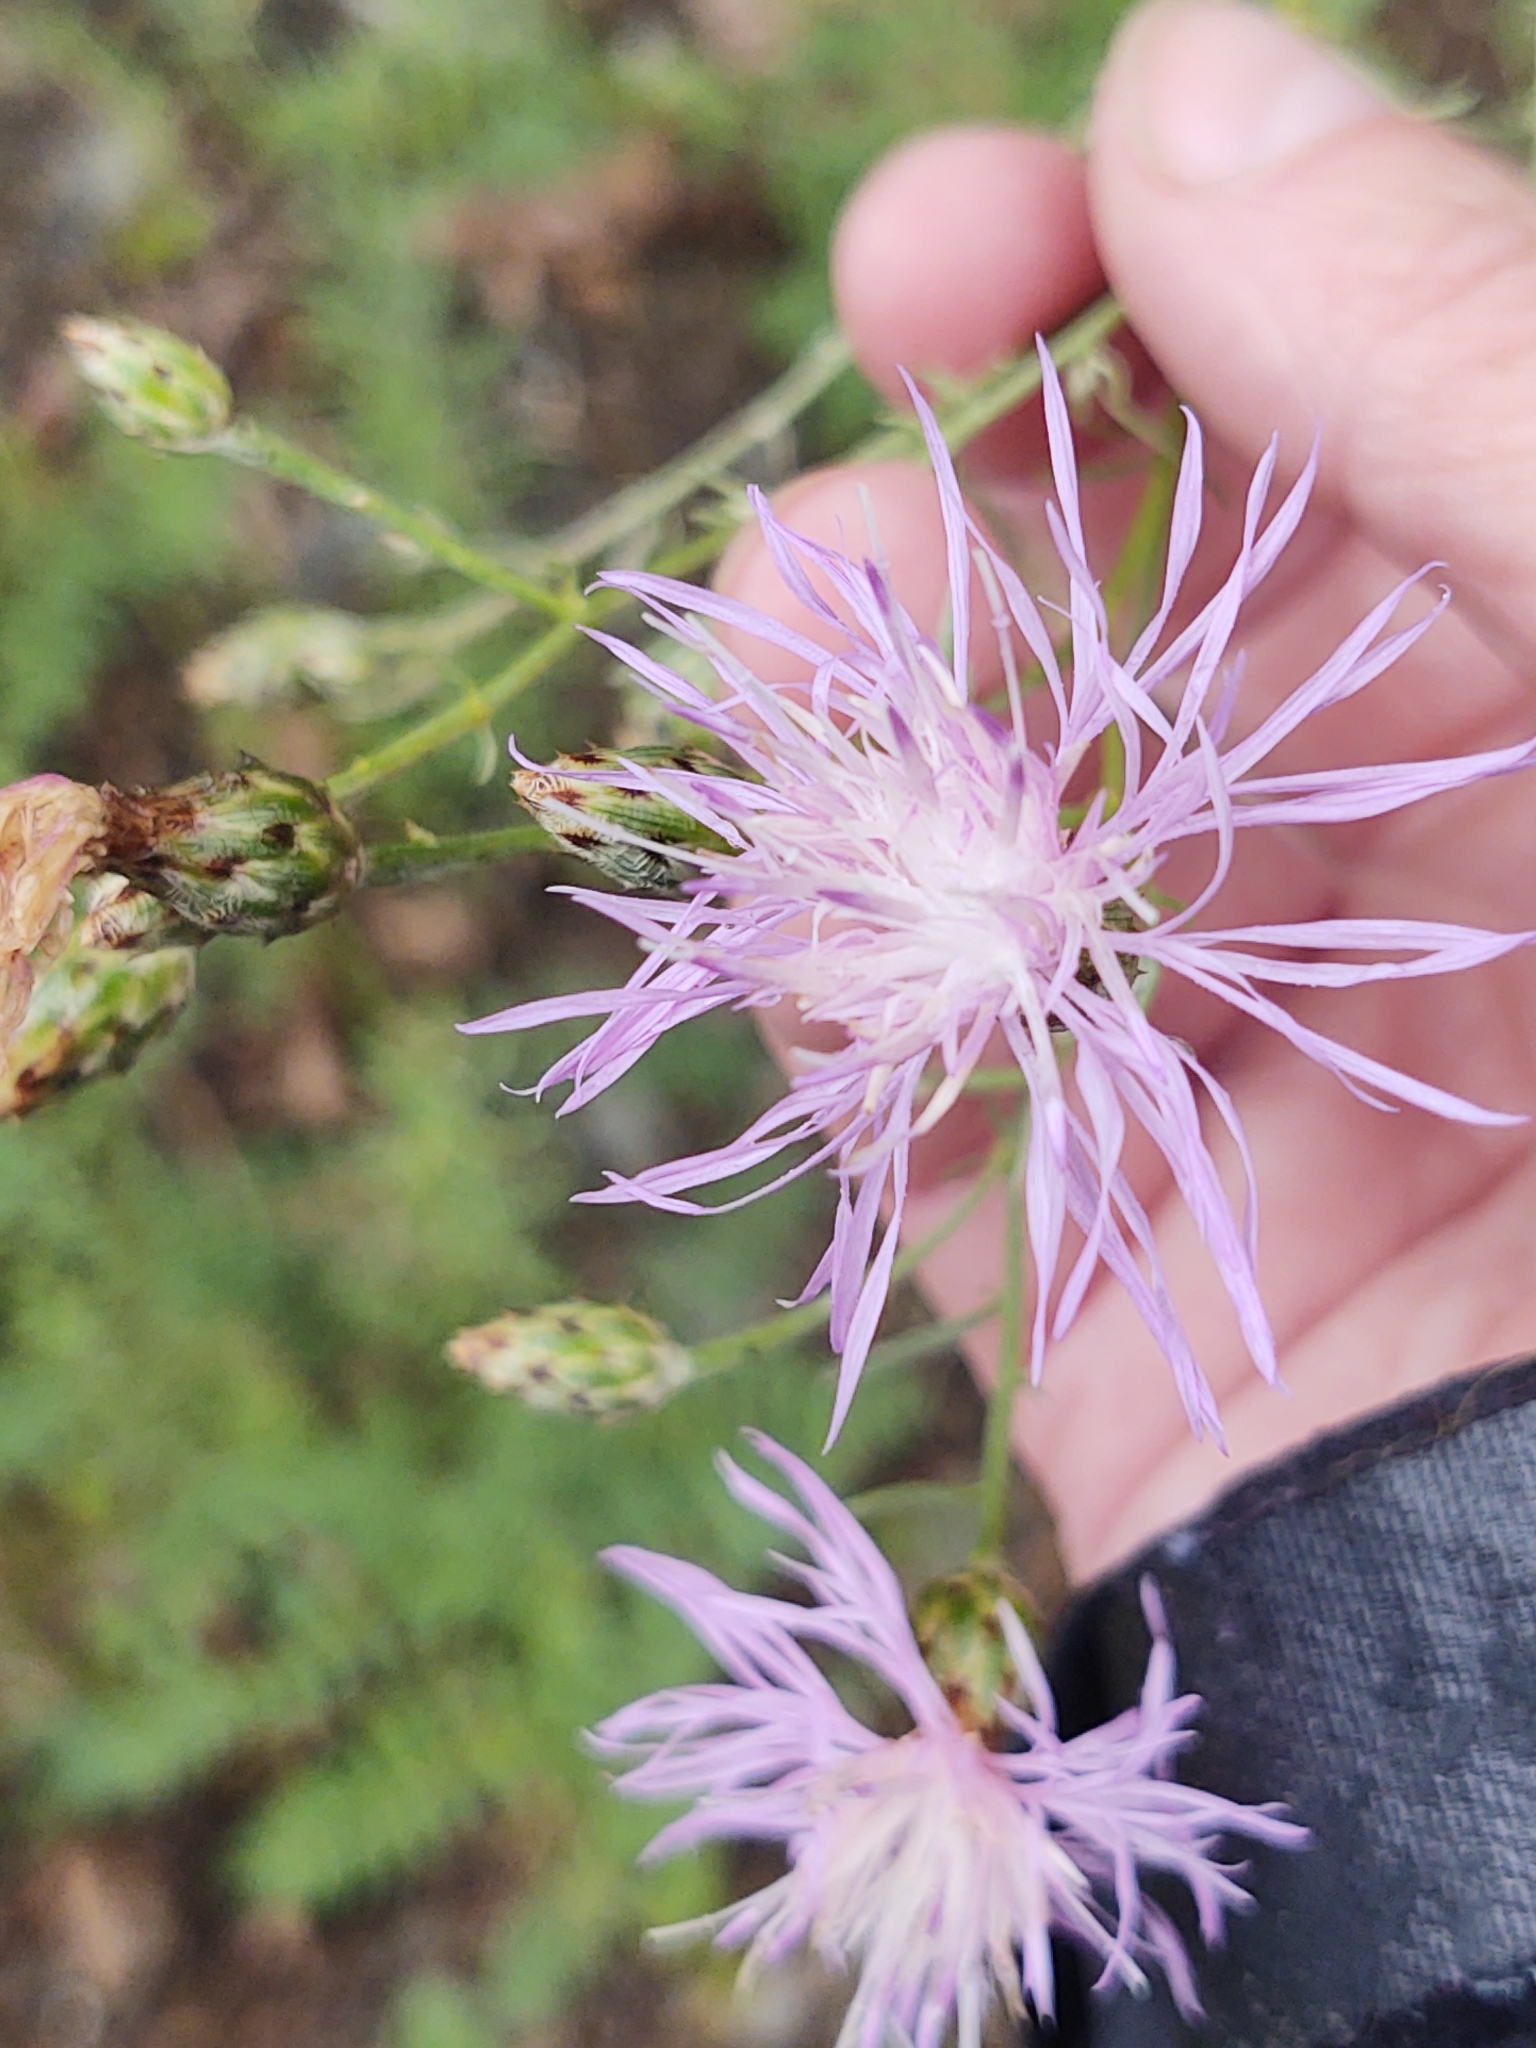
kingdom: Plantae
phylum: Tracheophyta
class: Magnoliopsida
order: Asterales
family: Asteraceae
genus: Centaurea
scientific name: Centaurea stoebe
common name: Spotted knapweed
